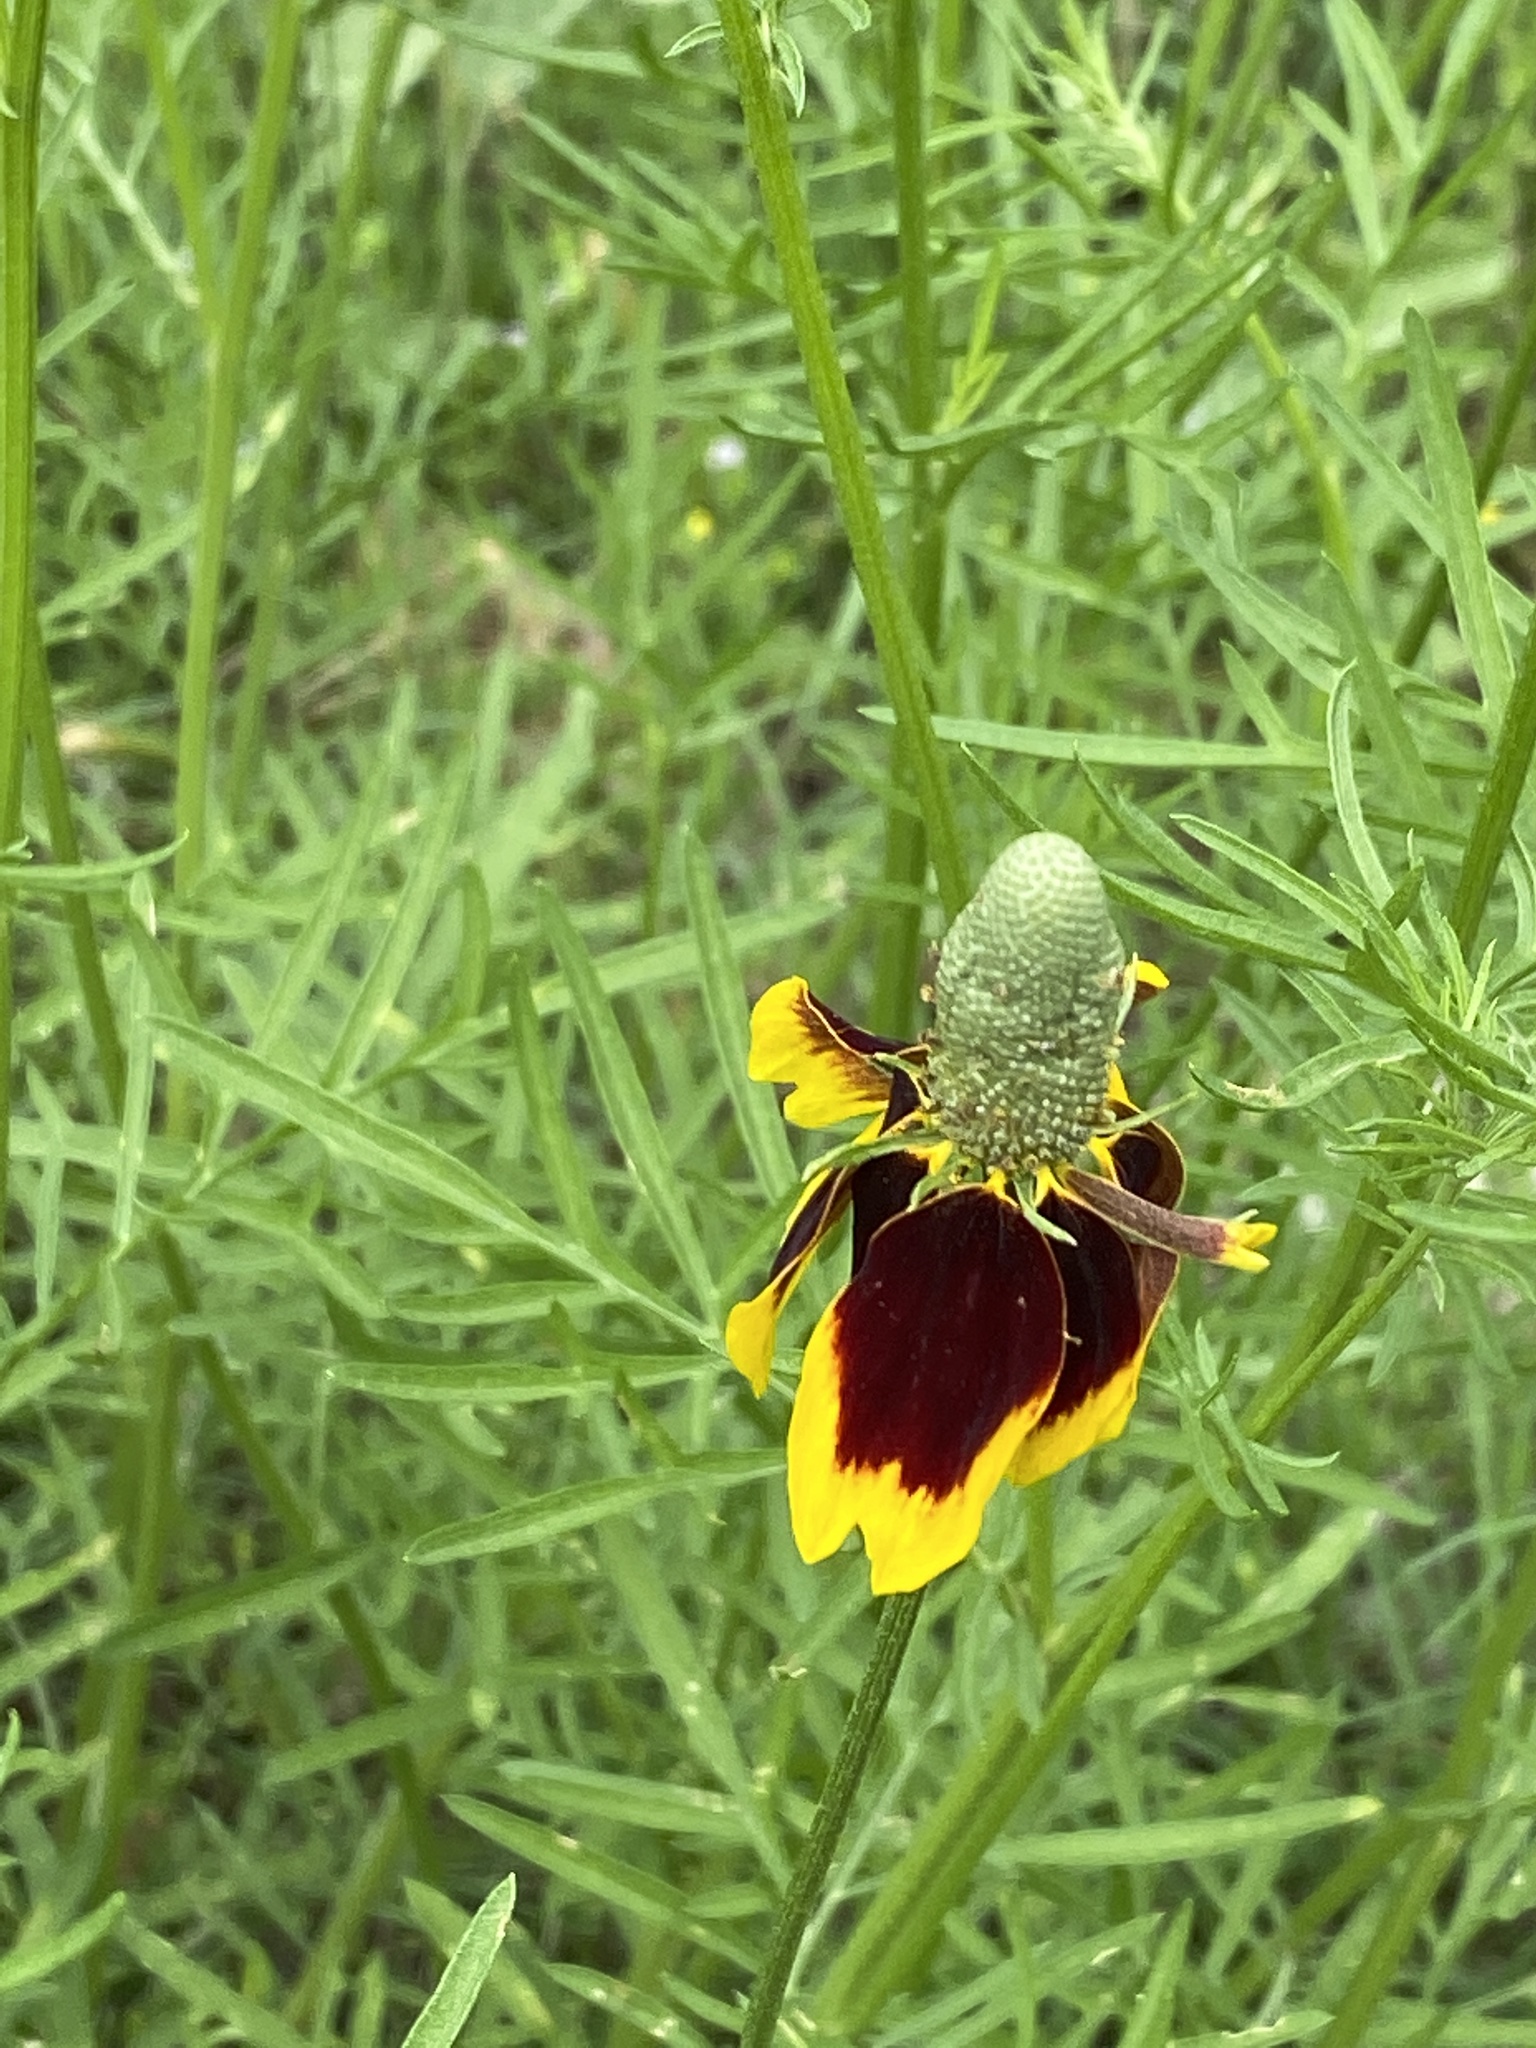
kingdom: Plantae
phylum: Tracheophyta
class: Magnoliopsida
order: Asterales
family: Asteraceae
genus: Ratibida
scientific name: Ratibida columnifera
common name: Prairie coneflower
